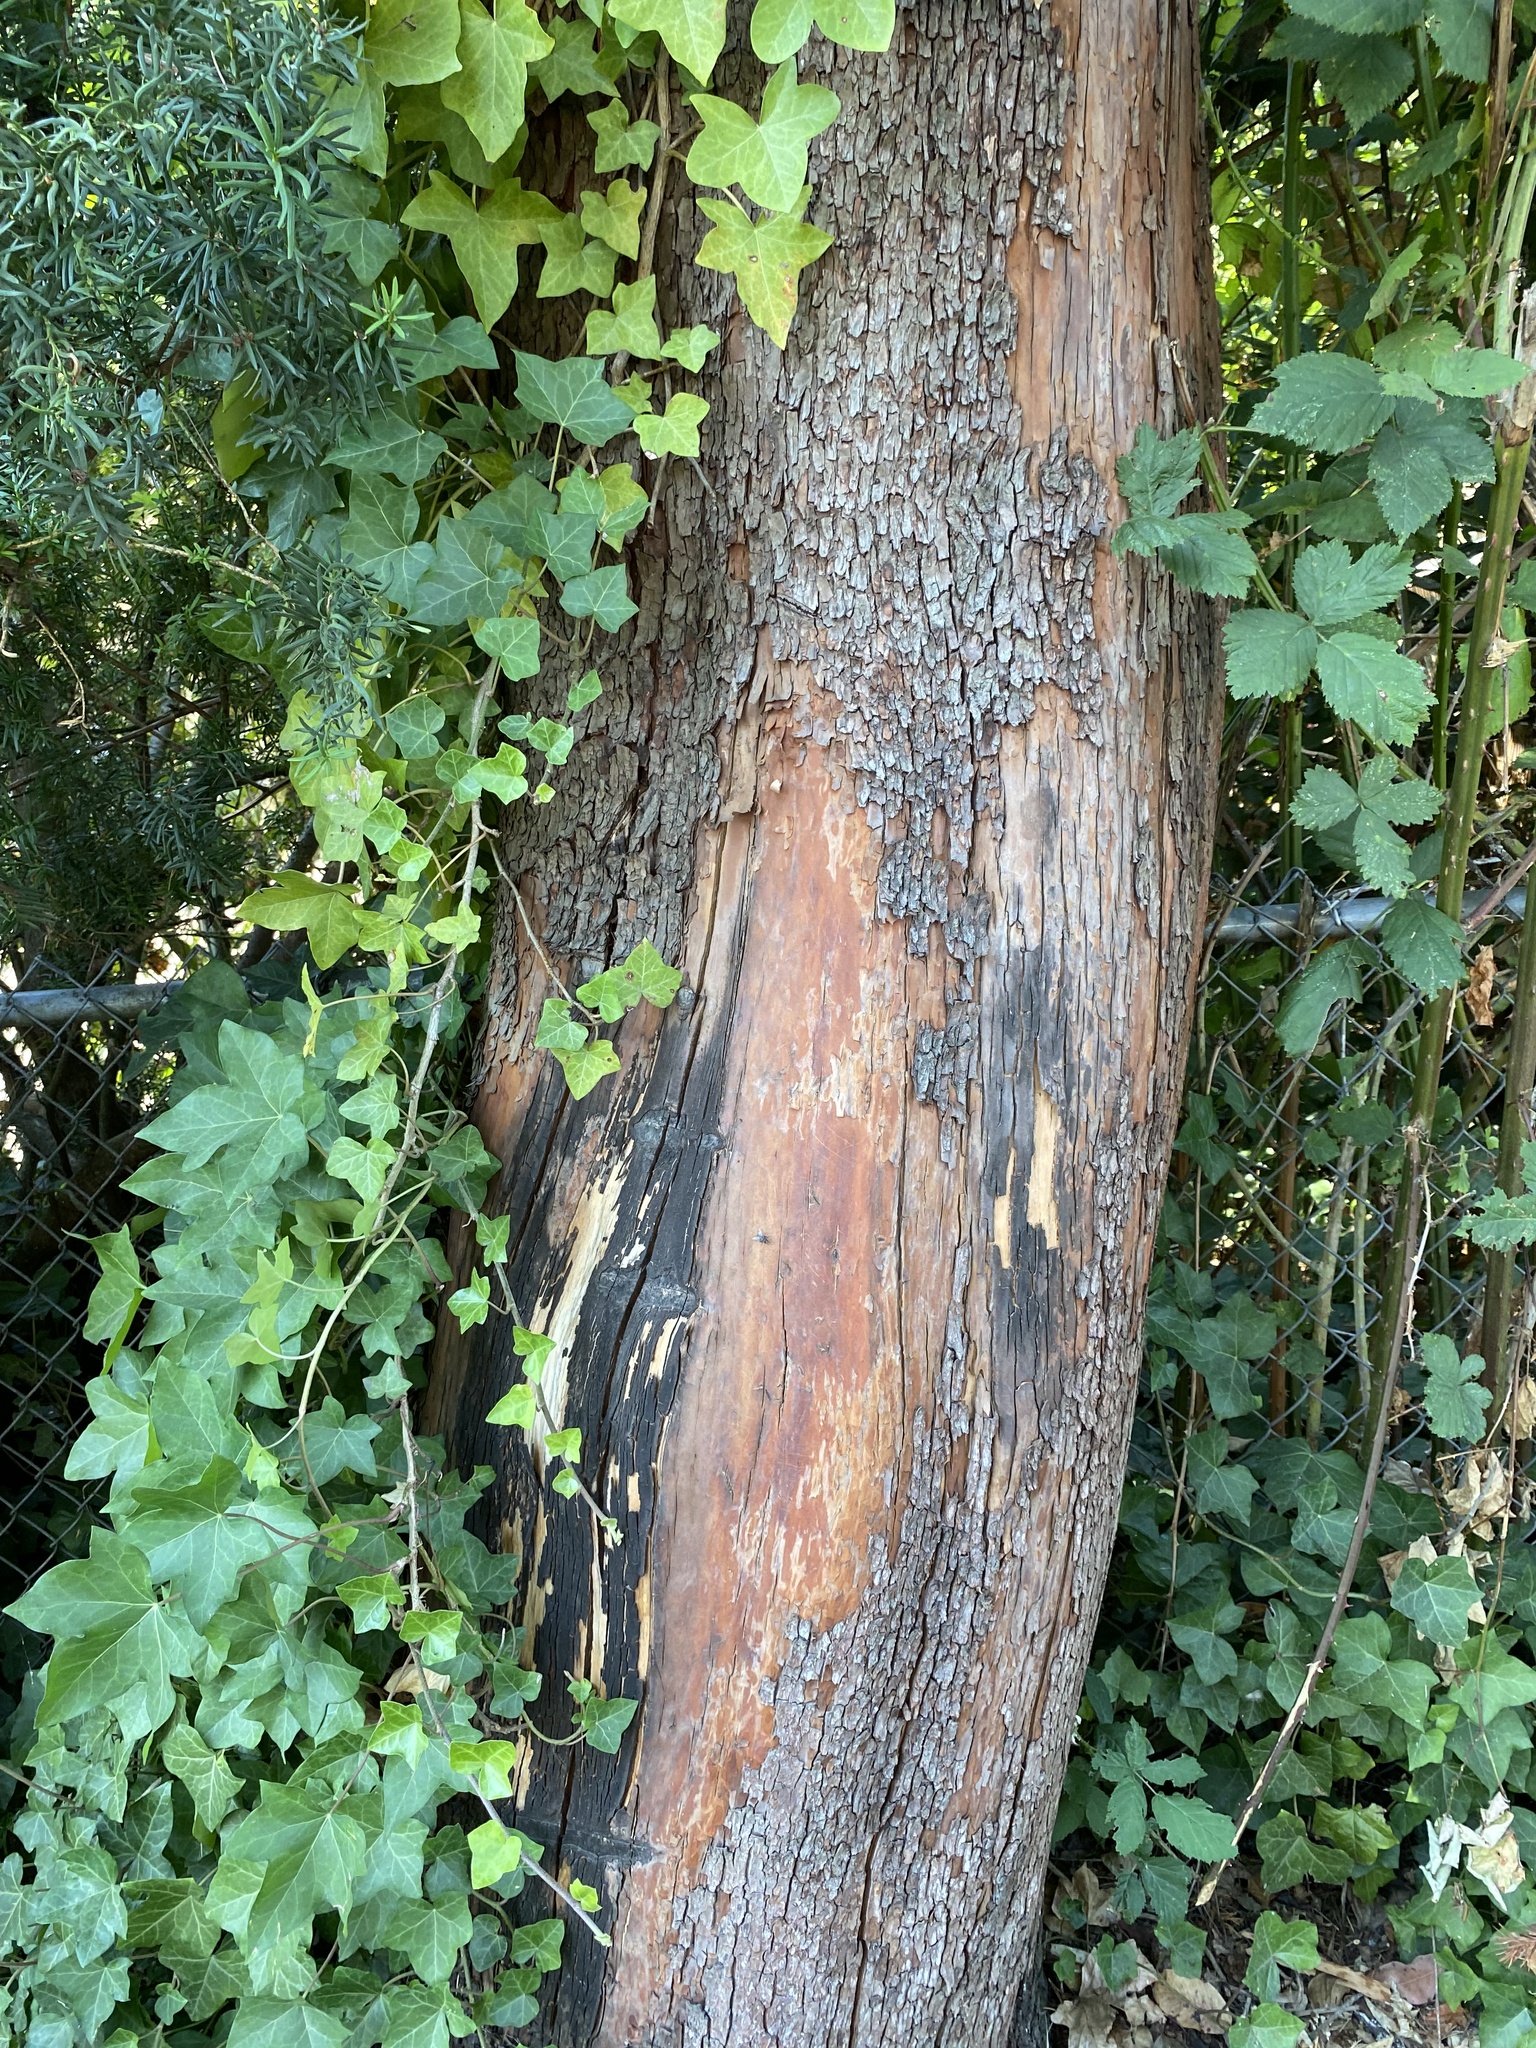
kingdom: Plantae
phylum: Tracheophyta
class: Magnoliopsida
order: Ericales
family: Ericaceae
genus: Arbutus
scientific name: Arbutus menziesii
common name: Pacific madrone
